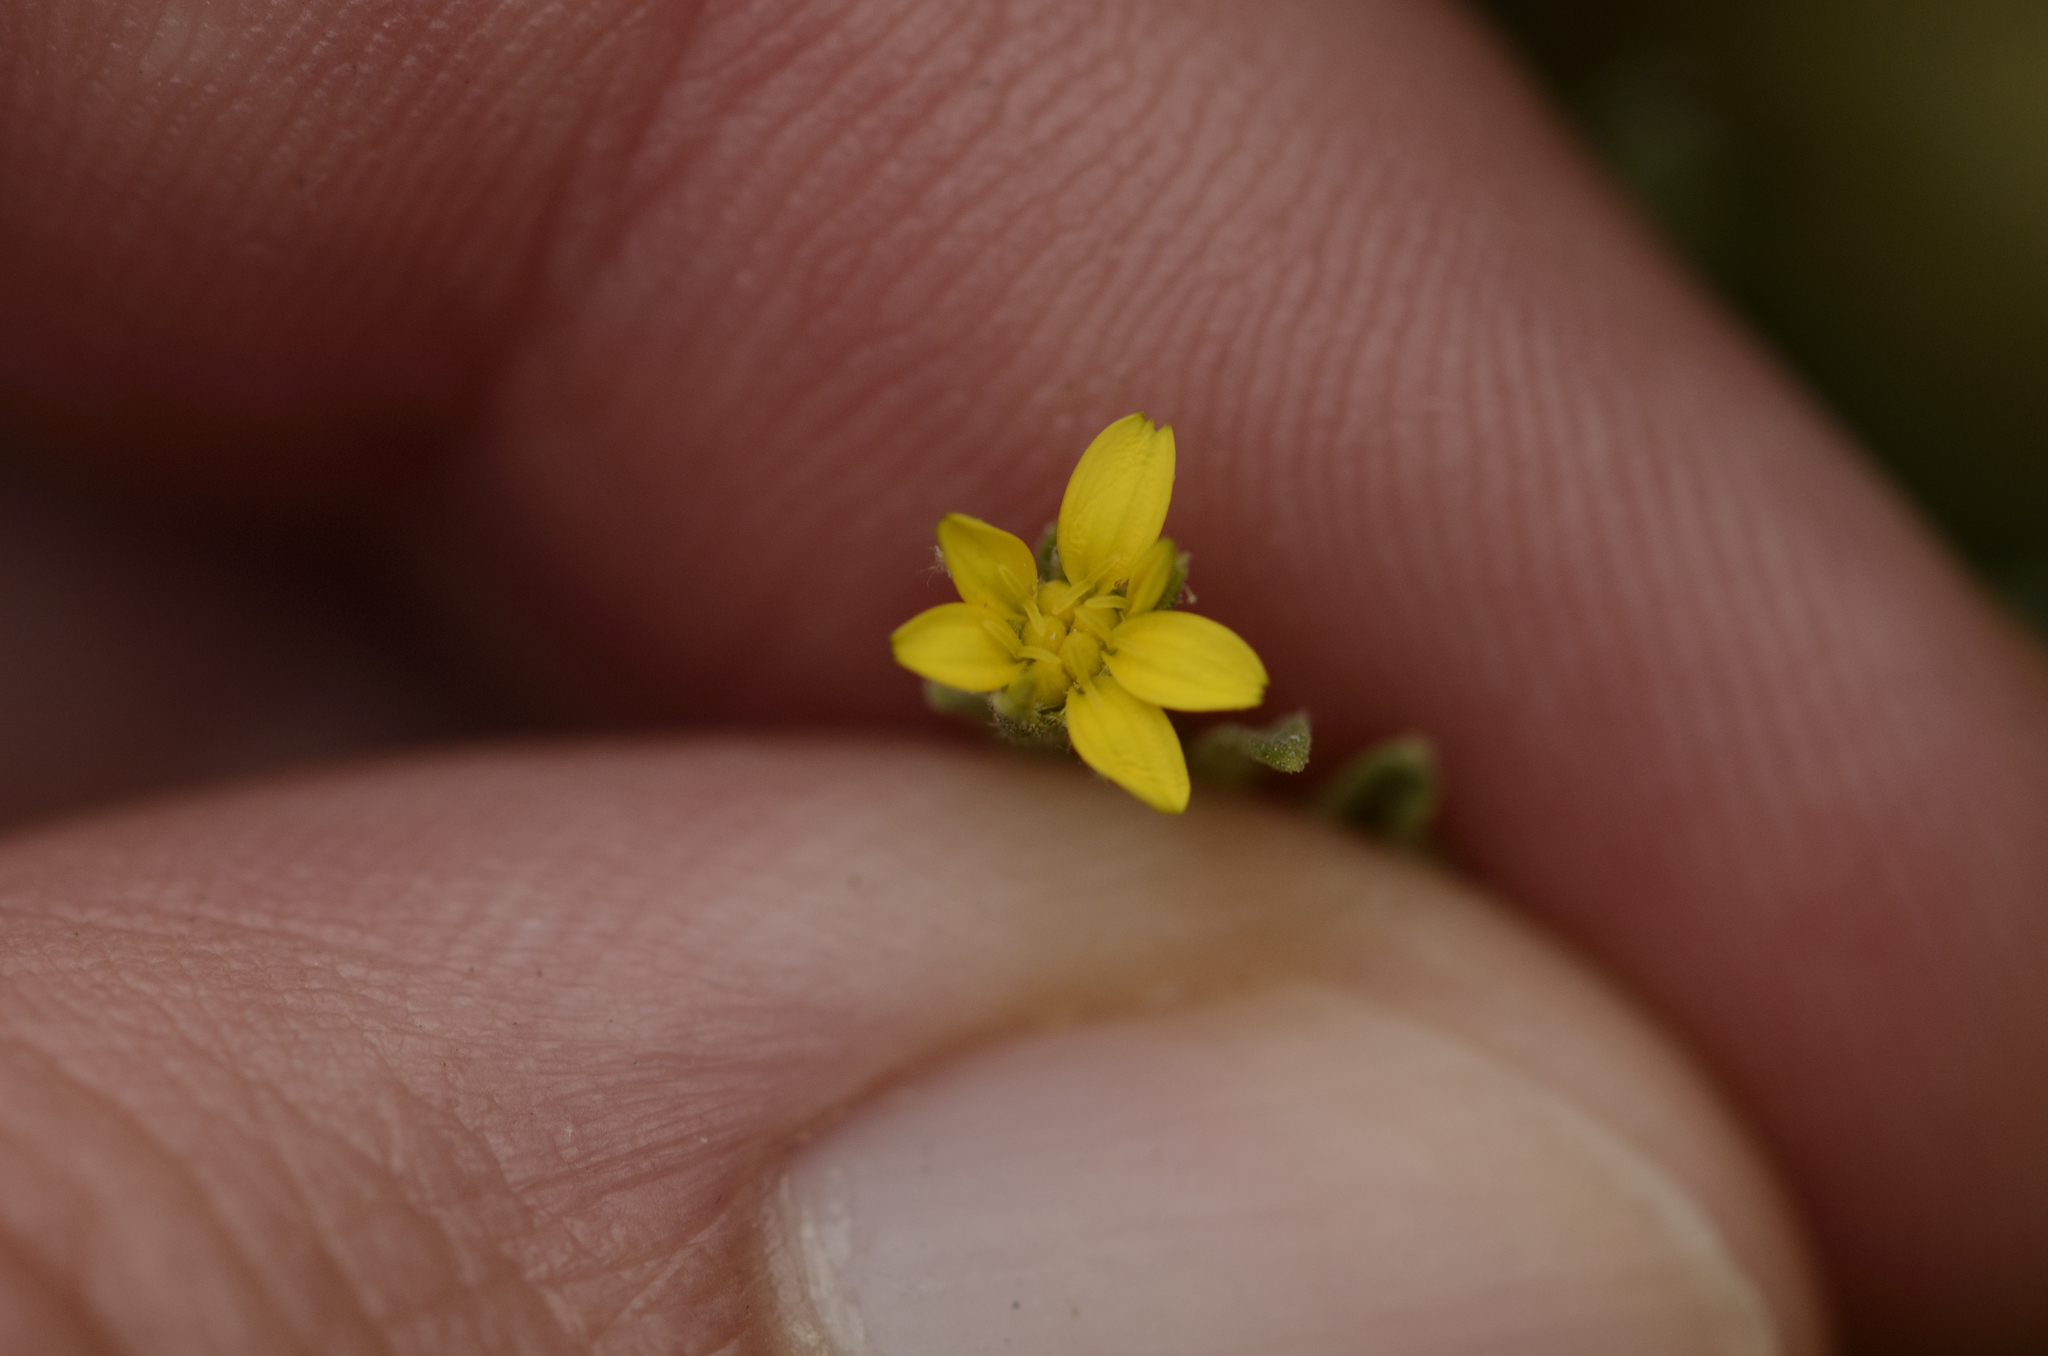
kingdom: Plantae
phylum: Tracheophyta
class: Magnoliopsida
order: Asterales
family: Asteraceae
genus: Osteospermum
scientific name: Osteospermum calendulaceum
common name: Stinking roger
